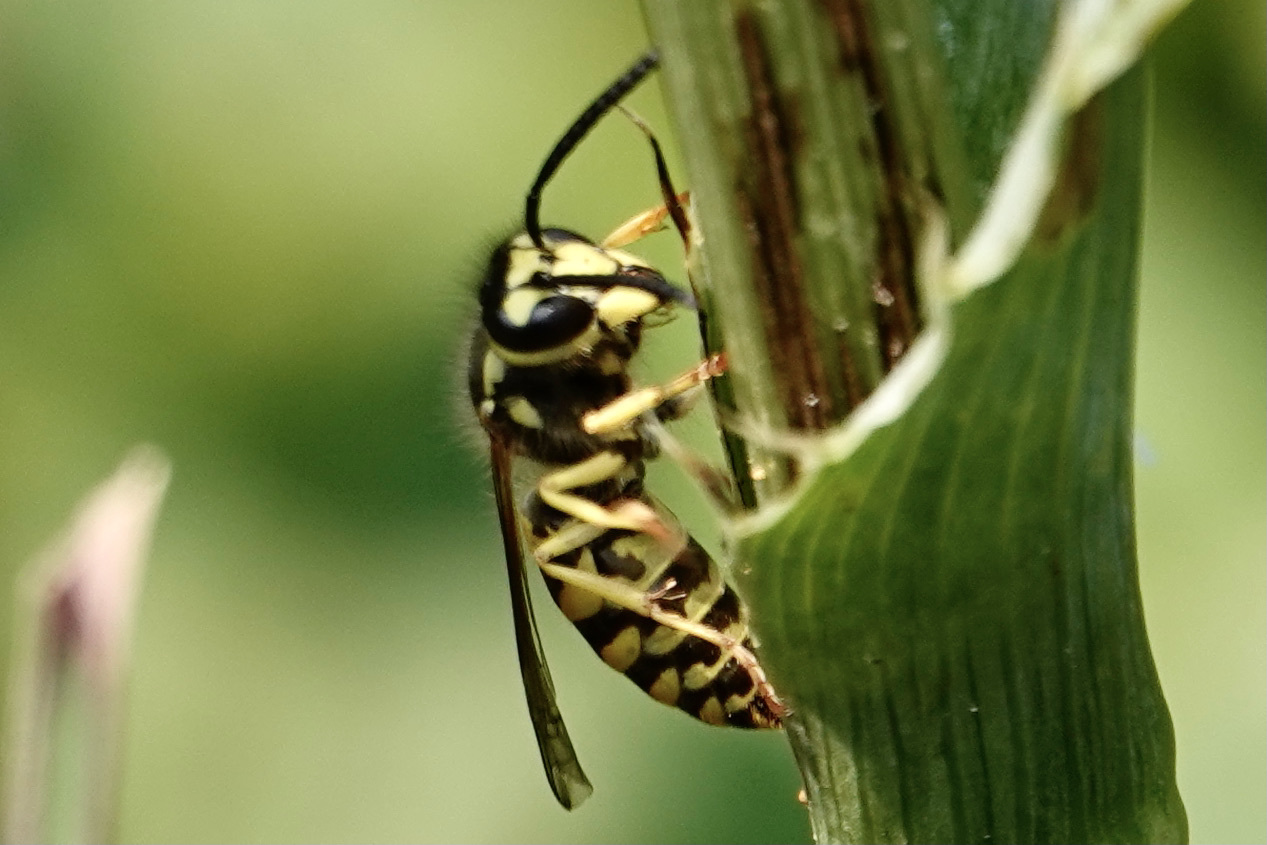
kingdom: Animalia
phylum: Arthropoda
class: Insecta
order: Hymenoptera
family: Vespidae
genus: Vespula
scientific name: Vespula maculifrons
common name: Eastern yellowjacket
